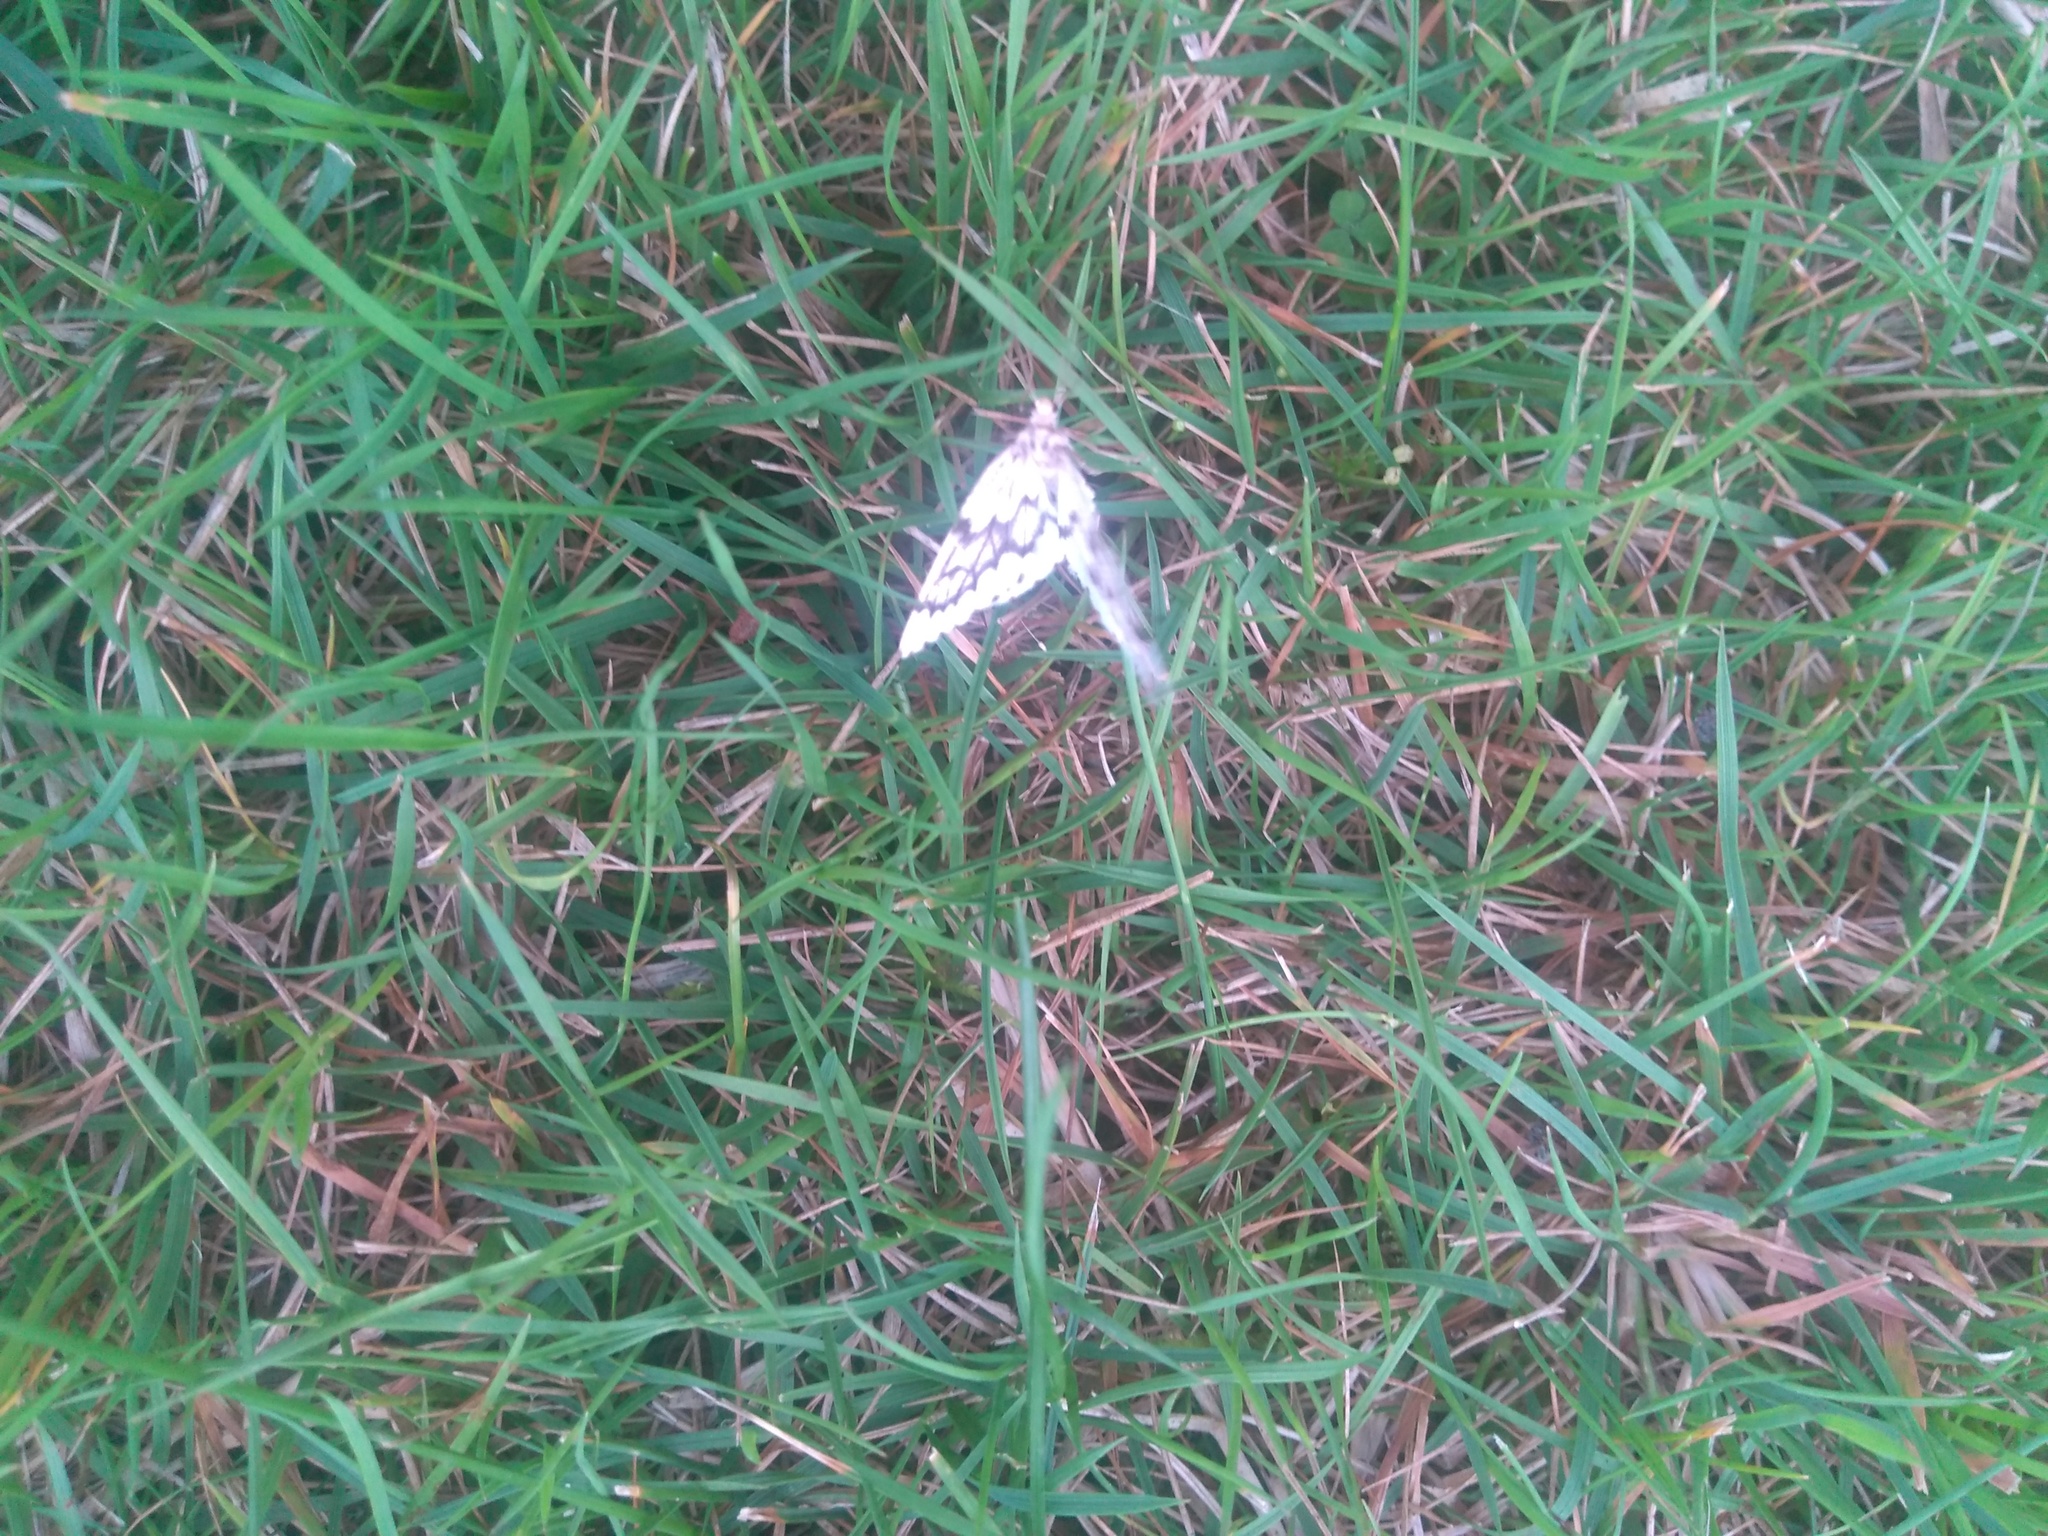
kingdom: Animalia
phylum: Arthropoda
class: Insecta
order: Lepidoptera
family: Geometridae
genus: Nepytia
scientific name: Nepytia phantasmaria
